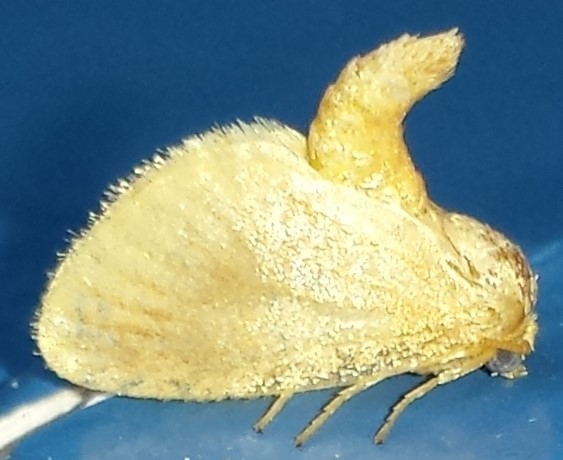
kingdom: Animalia
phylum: Arthropoda
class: Insecta
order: Lepidoptera
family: Limacodidae
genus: Tortricidia
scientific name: Tortricidia testacea
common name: Early button slug moth
